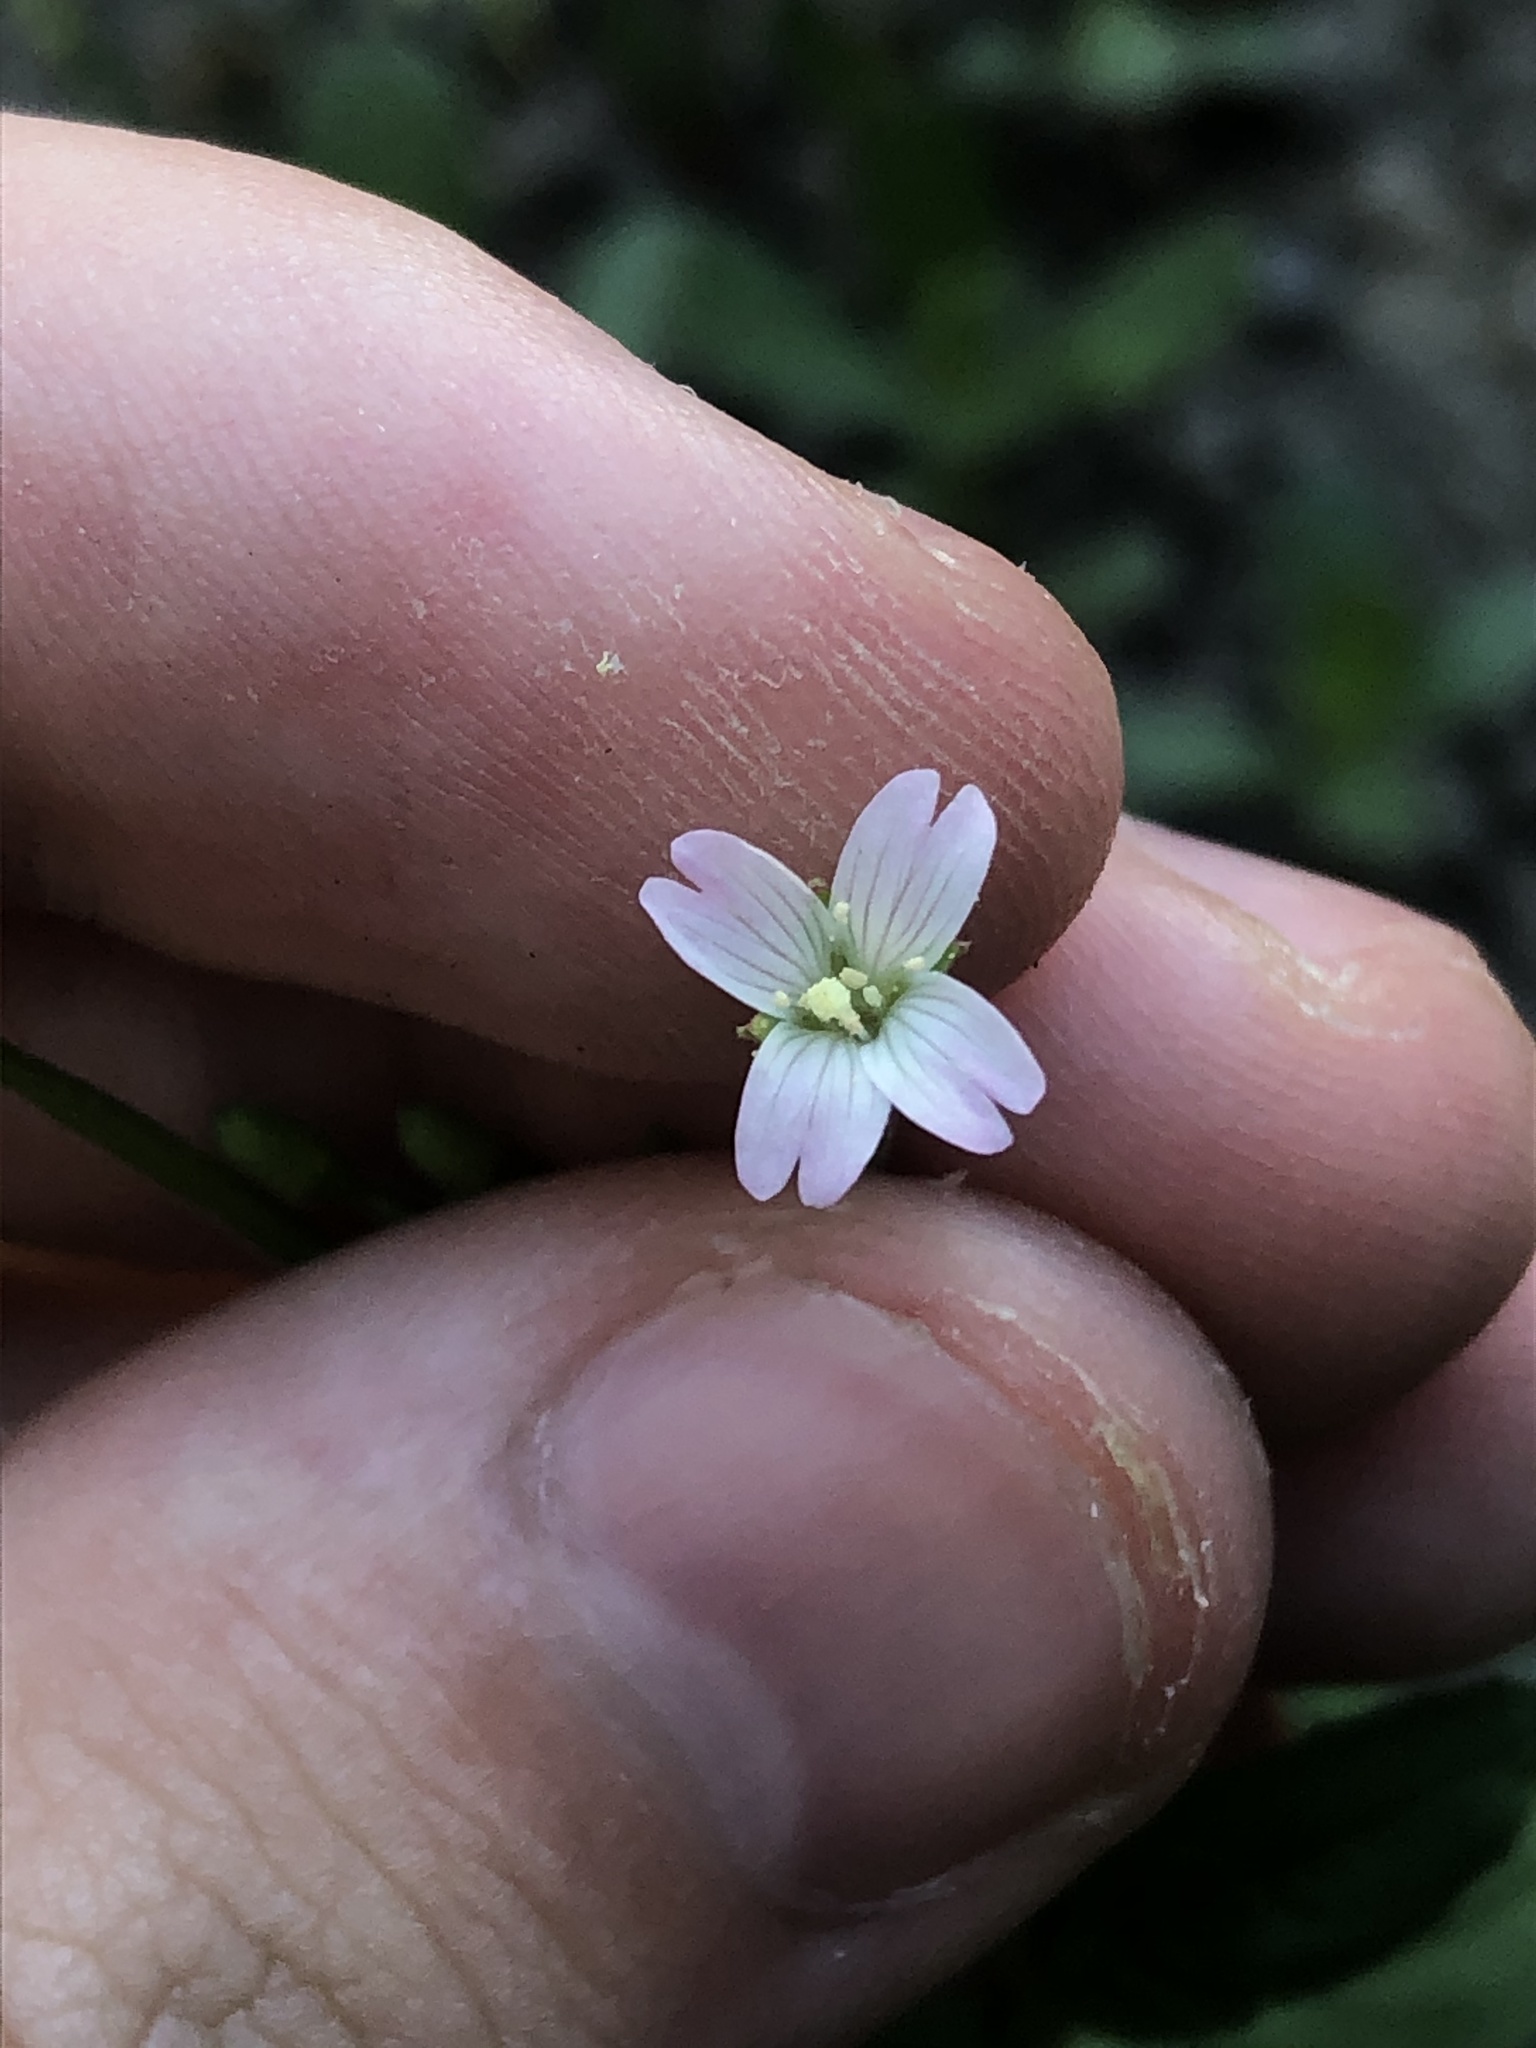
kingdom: Plantae
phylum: Tracheophyta
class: Magnoliopsida
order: Myrtales
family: Onagraceae
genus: Epilobium
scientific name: Epilobium ciliatum
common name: American willowherb
